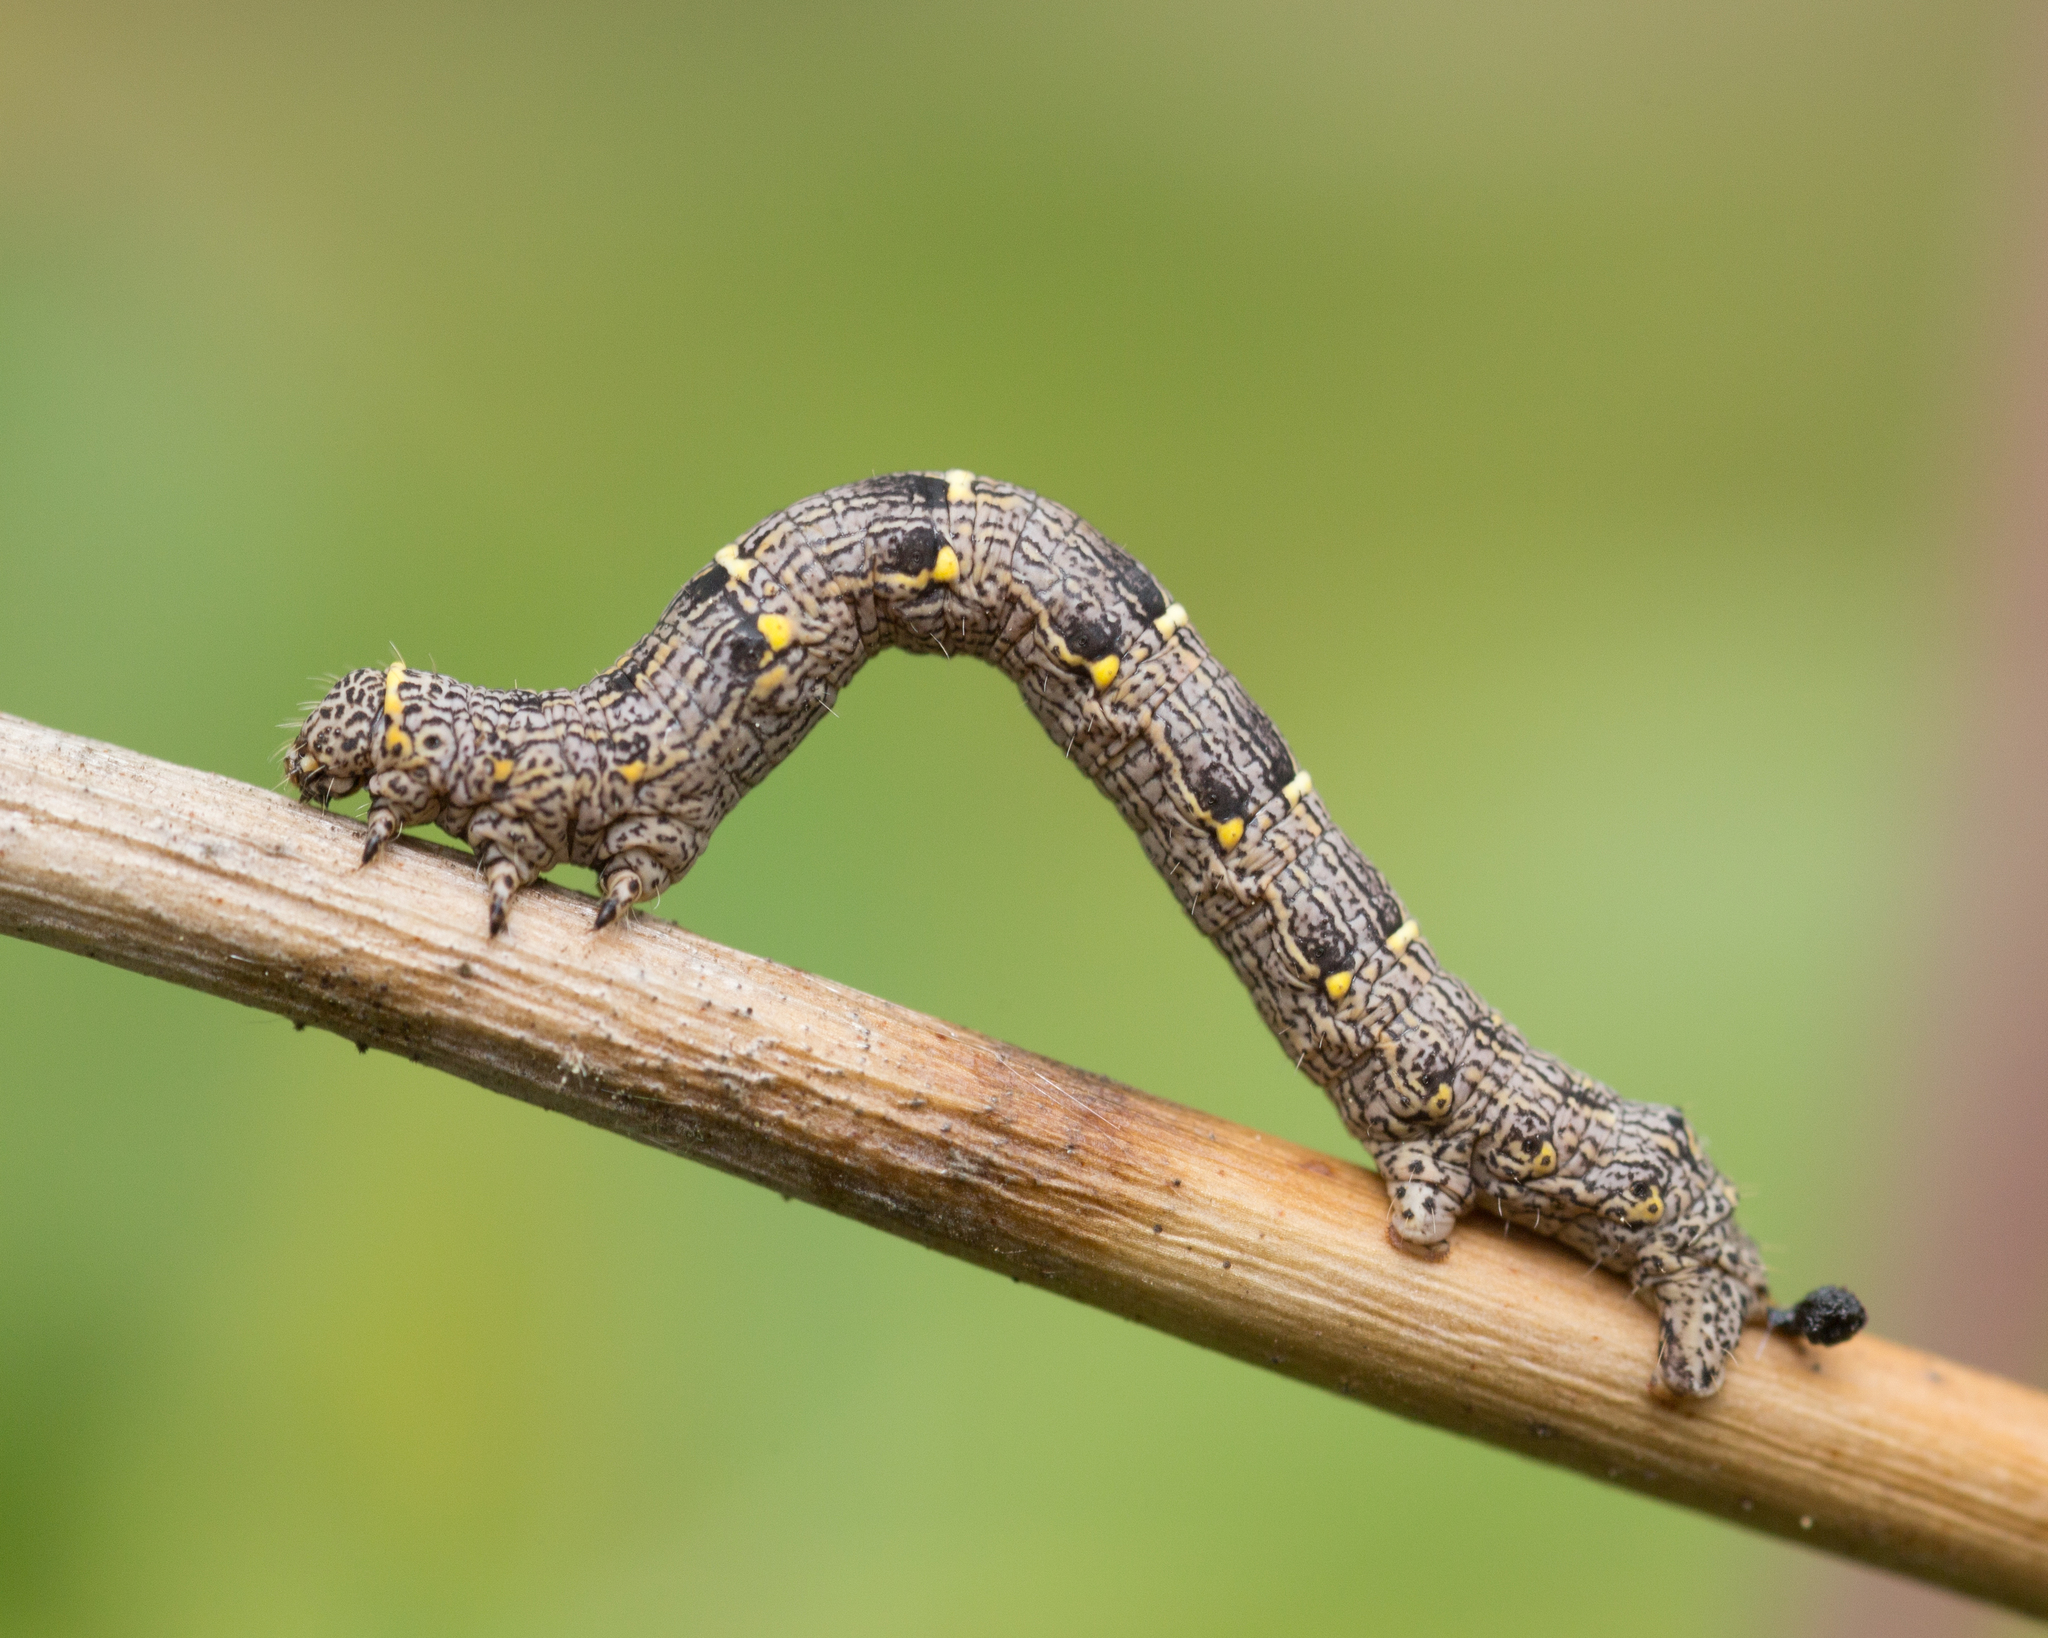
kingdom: Animalia
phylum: Arthropoda
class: Insecta
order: Lepidoptera
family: Geometridae
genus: Lycia
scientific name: Lycia pomonaria
